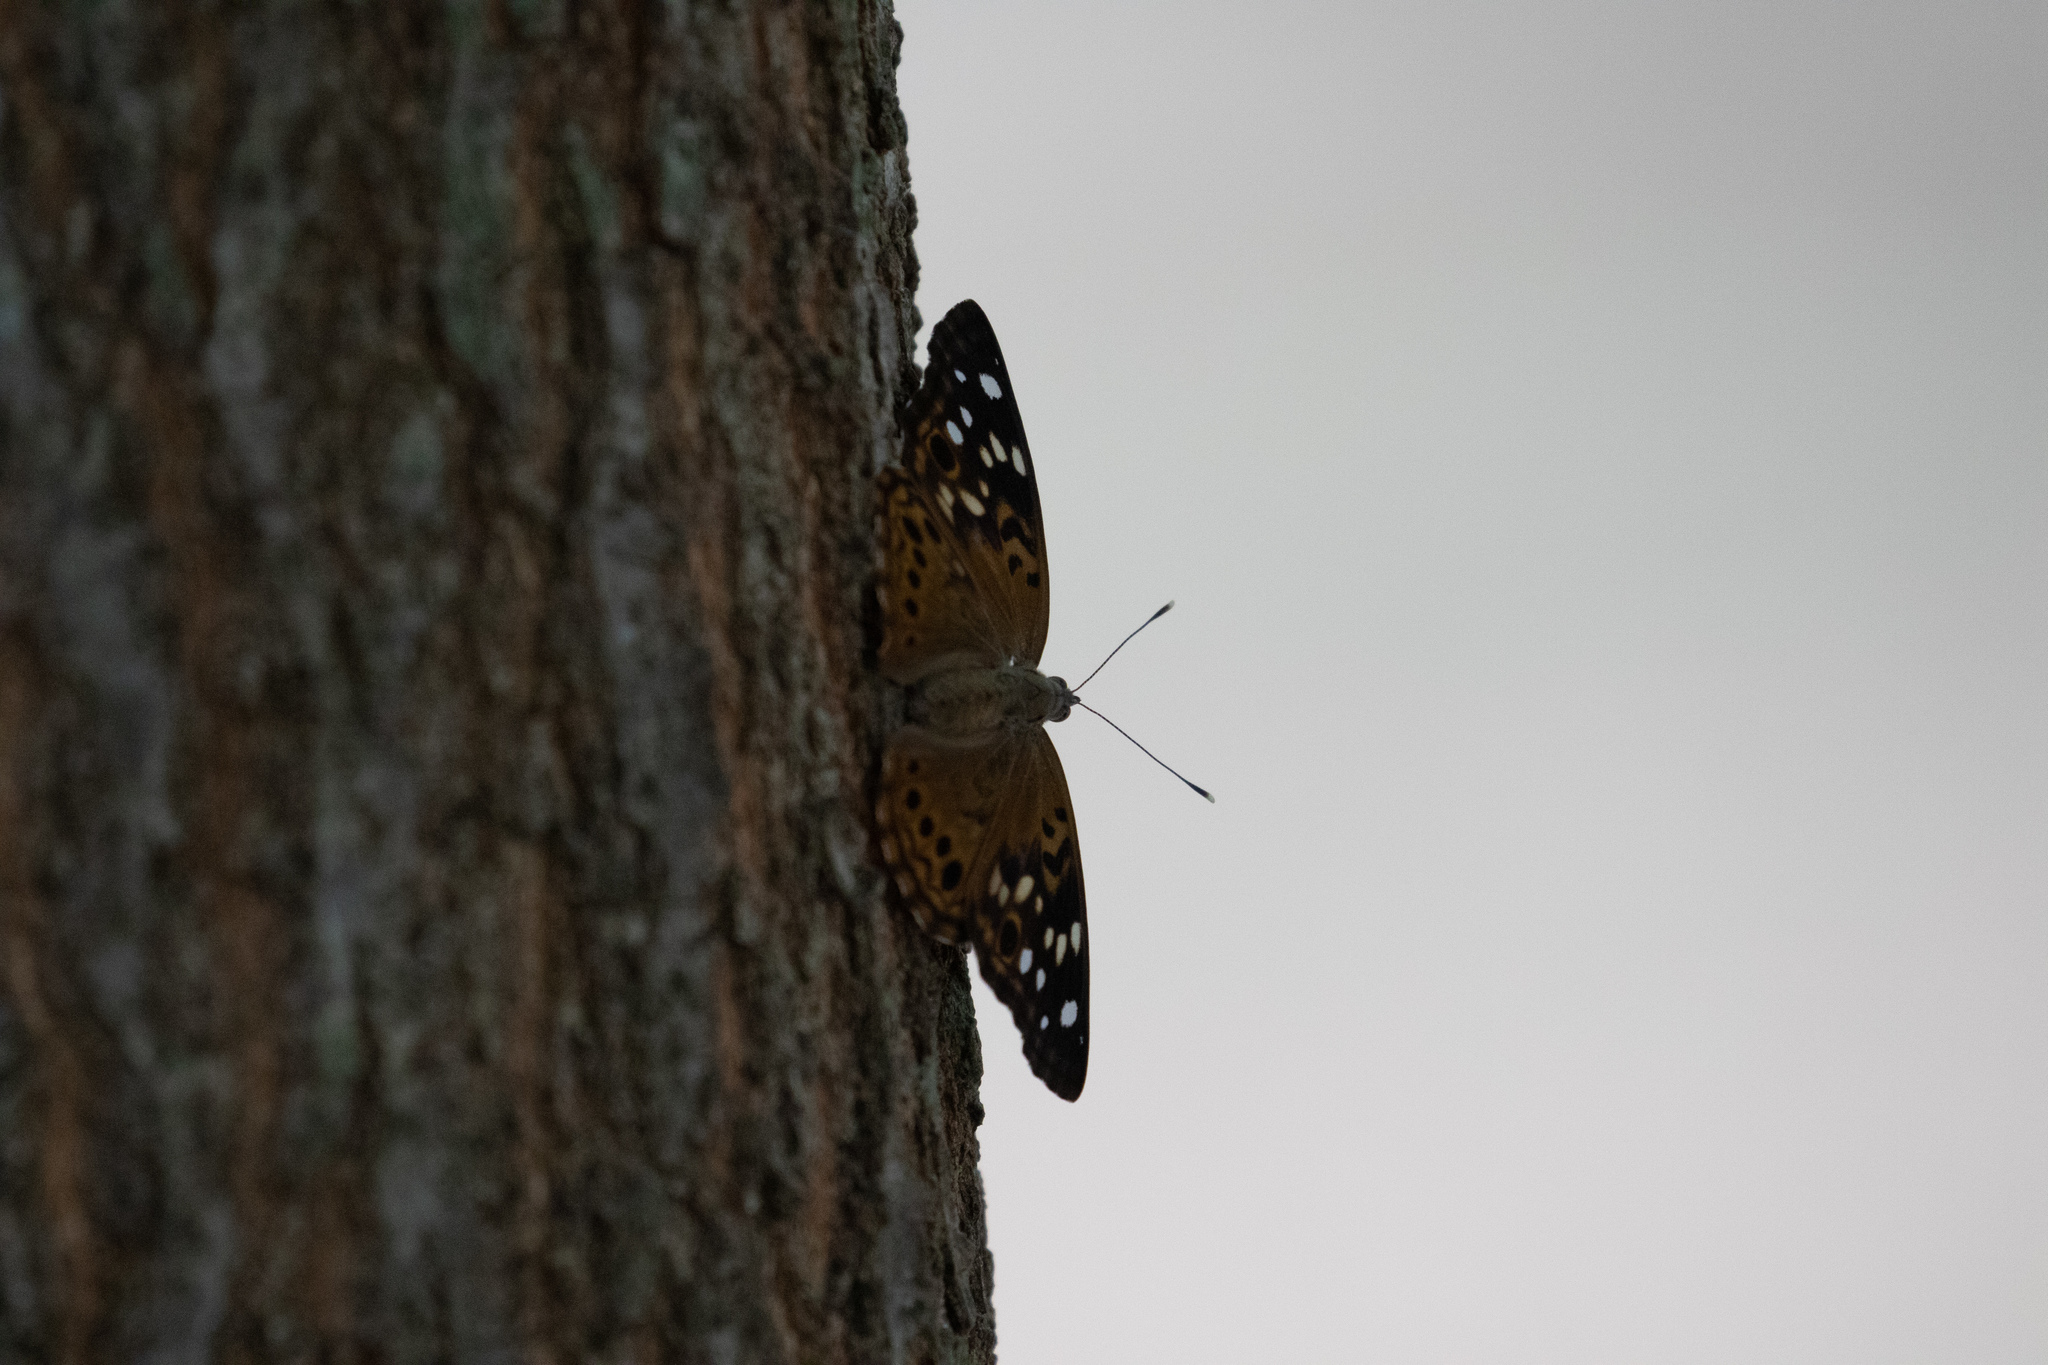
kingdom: Animalia
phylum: Arthropoda
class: Insecta
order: Lepidoptera
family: Nymphalidae
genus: Asterocampa
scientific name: Asterocampa celtis
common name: Hackberry emperor
